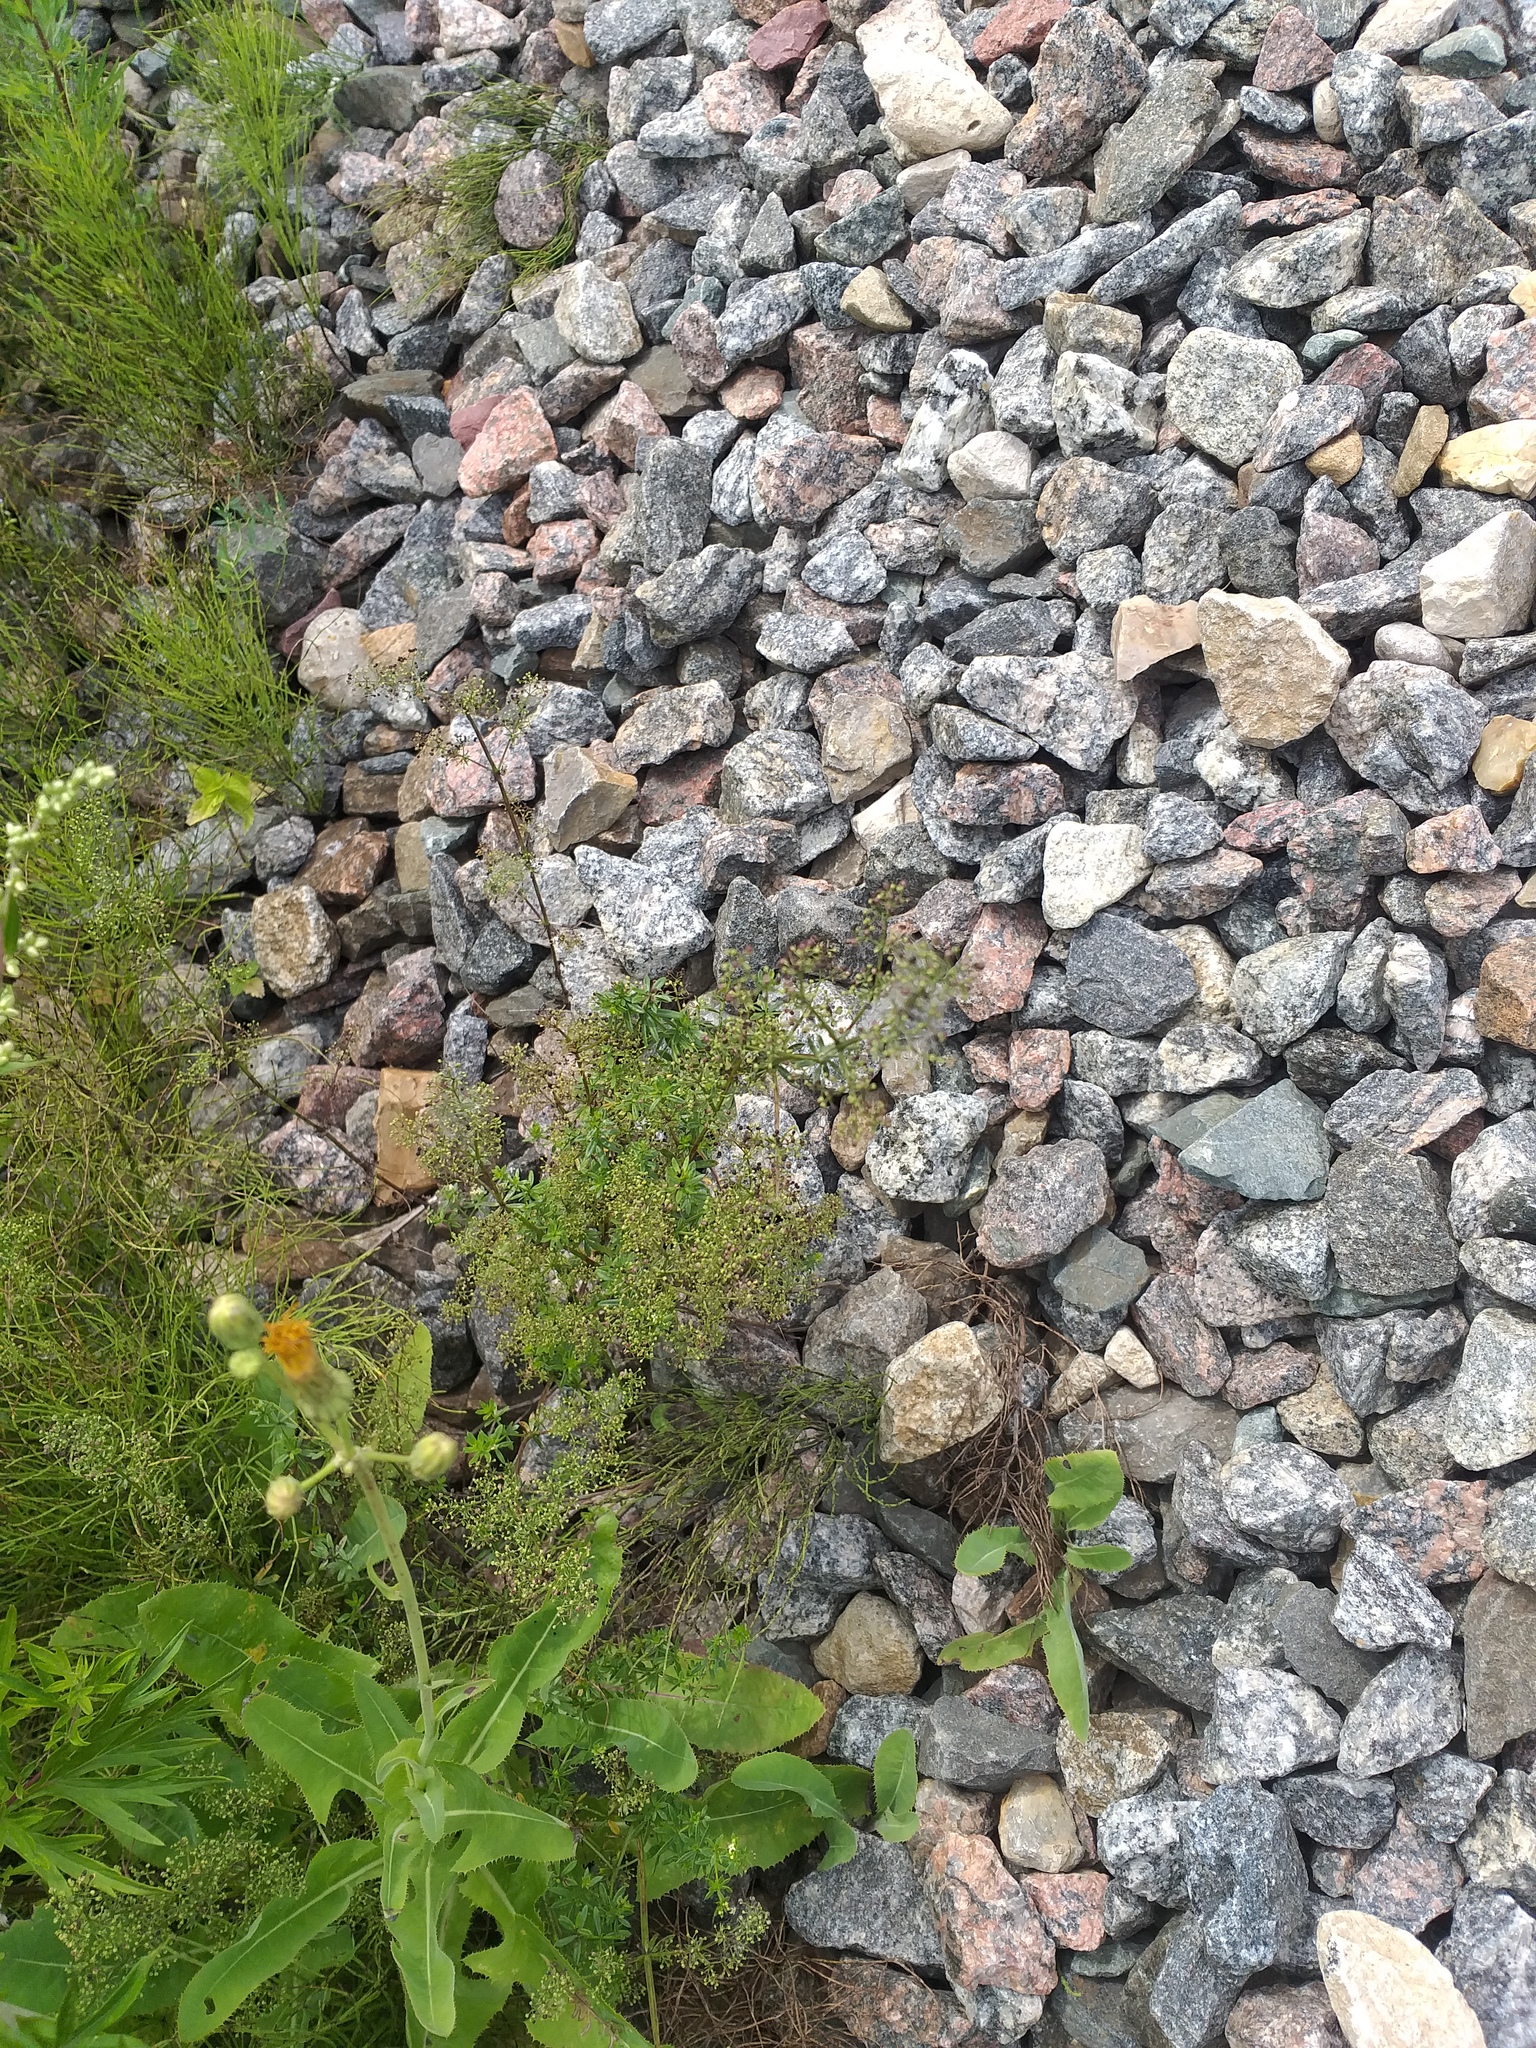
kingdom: Plantae
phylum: Tracheophyta
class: Magnoliopsida
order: Gentianales
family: Rubiaceae
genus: Galium
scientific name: Galium mollugo
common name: Hedge bedstraw
